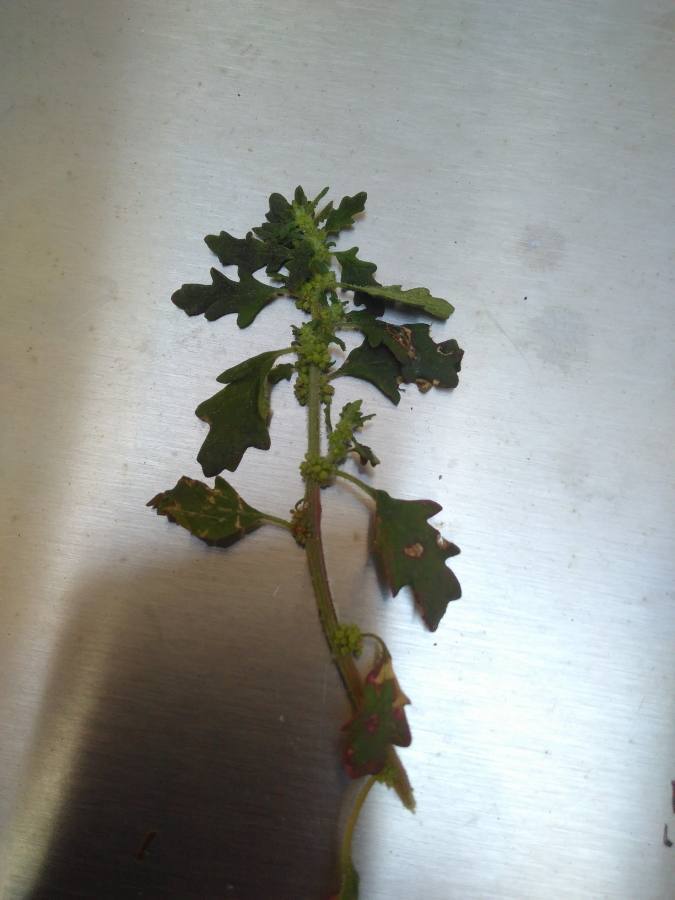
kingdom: Plantae
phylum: Tracheophyta
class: Magnoliopsida
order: Caryophyllales
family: Amaranthaceae
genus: Dysphania
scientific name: Dysphania pumilio
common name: Clammy goosefoot
